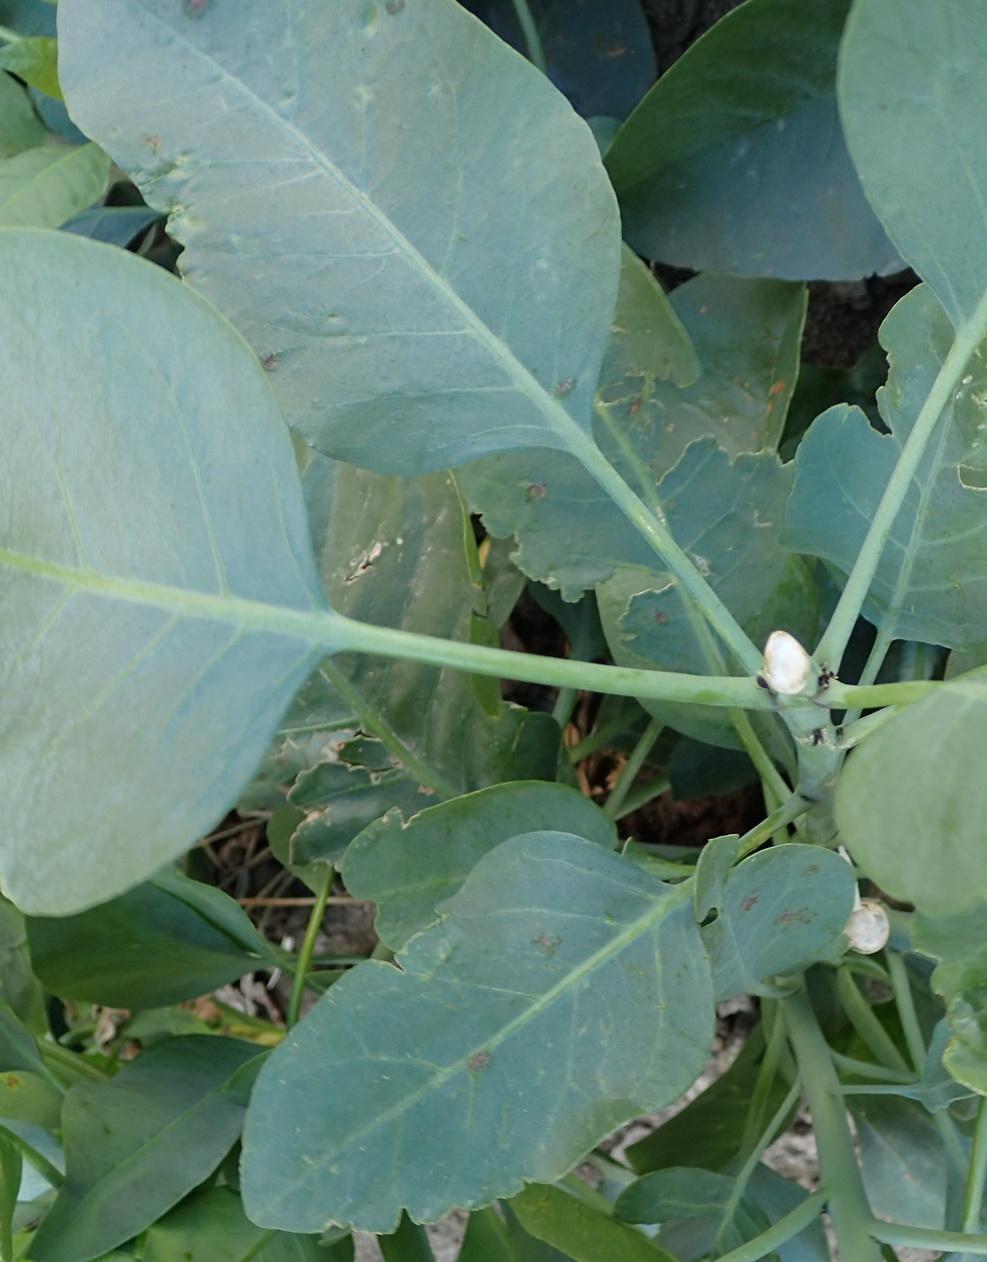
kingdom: Plantae
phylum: Tracheophyta
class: Magnoliopsida
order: Solanales
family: Solanaceae
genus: Nicotiana
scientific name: Nicotiana glauca
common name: Tree tobacco
